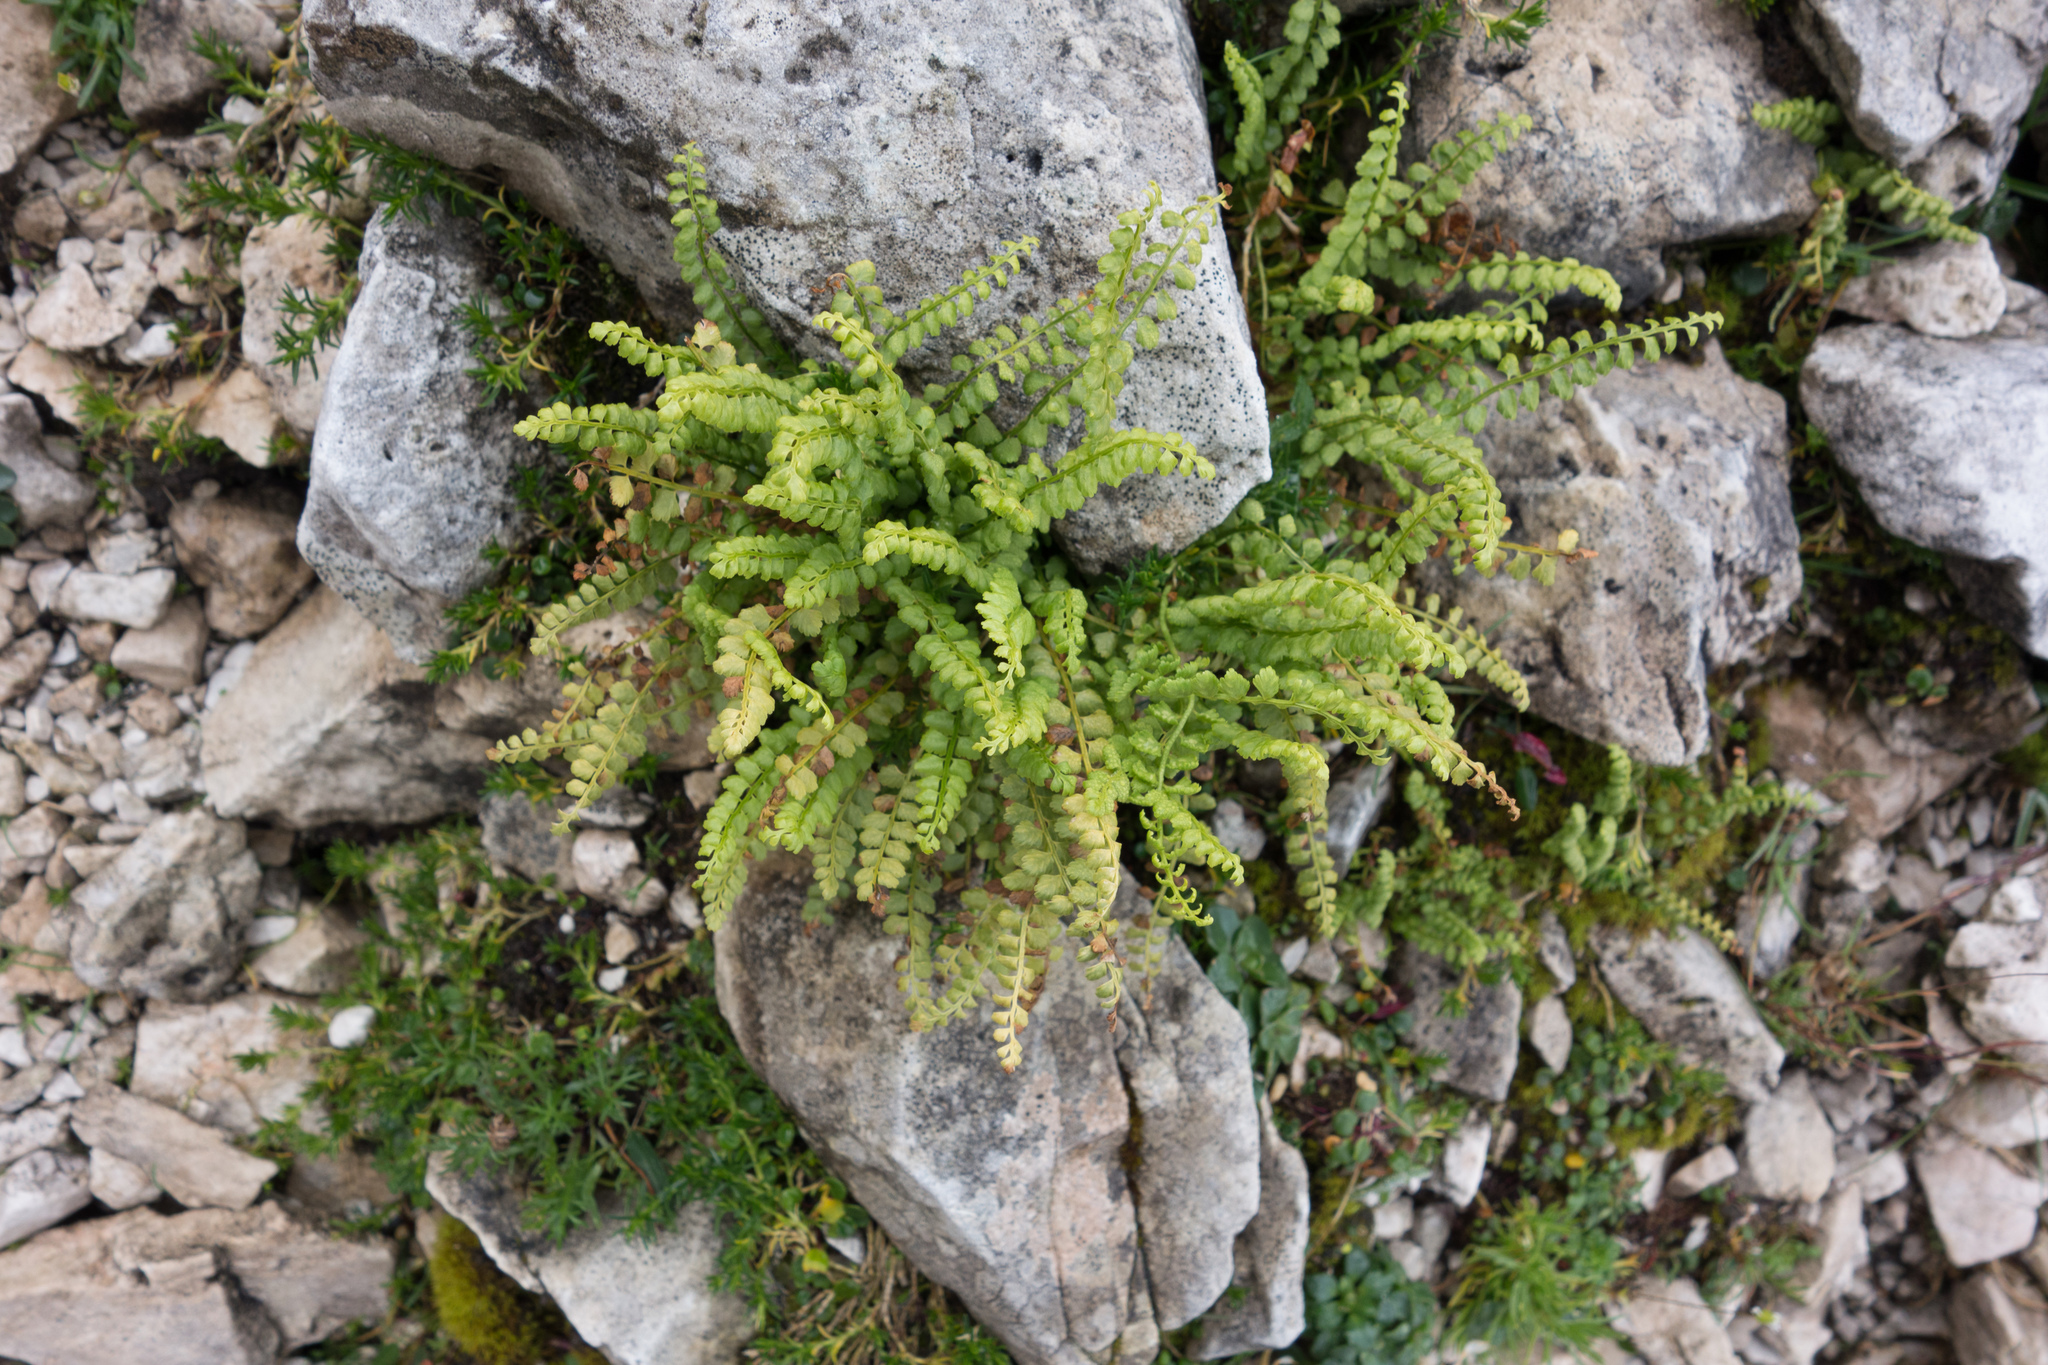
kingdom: Plantae
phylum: Tracheophyta
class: Polypodiopsida
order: Polypodiales
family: Aspleniaceae
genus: Asplenium
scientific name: Asplenium viride
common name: Green spleenwort
